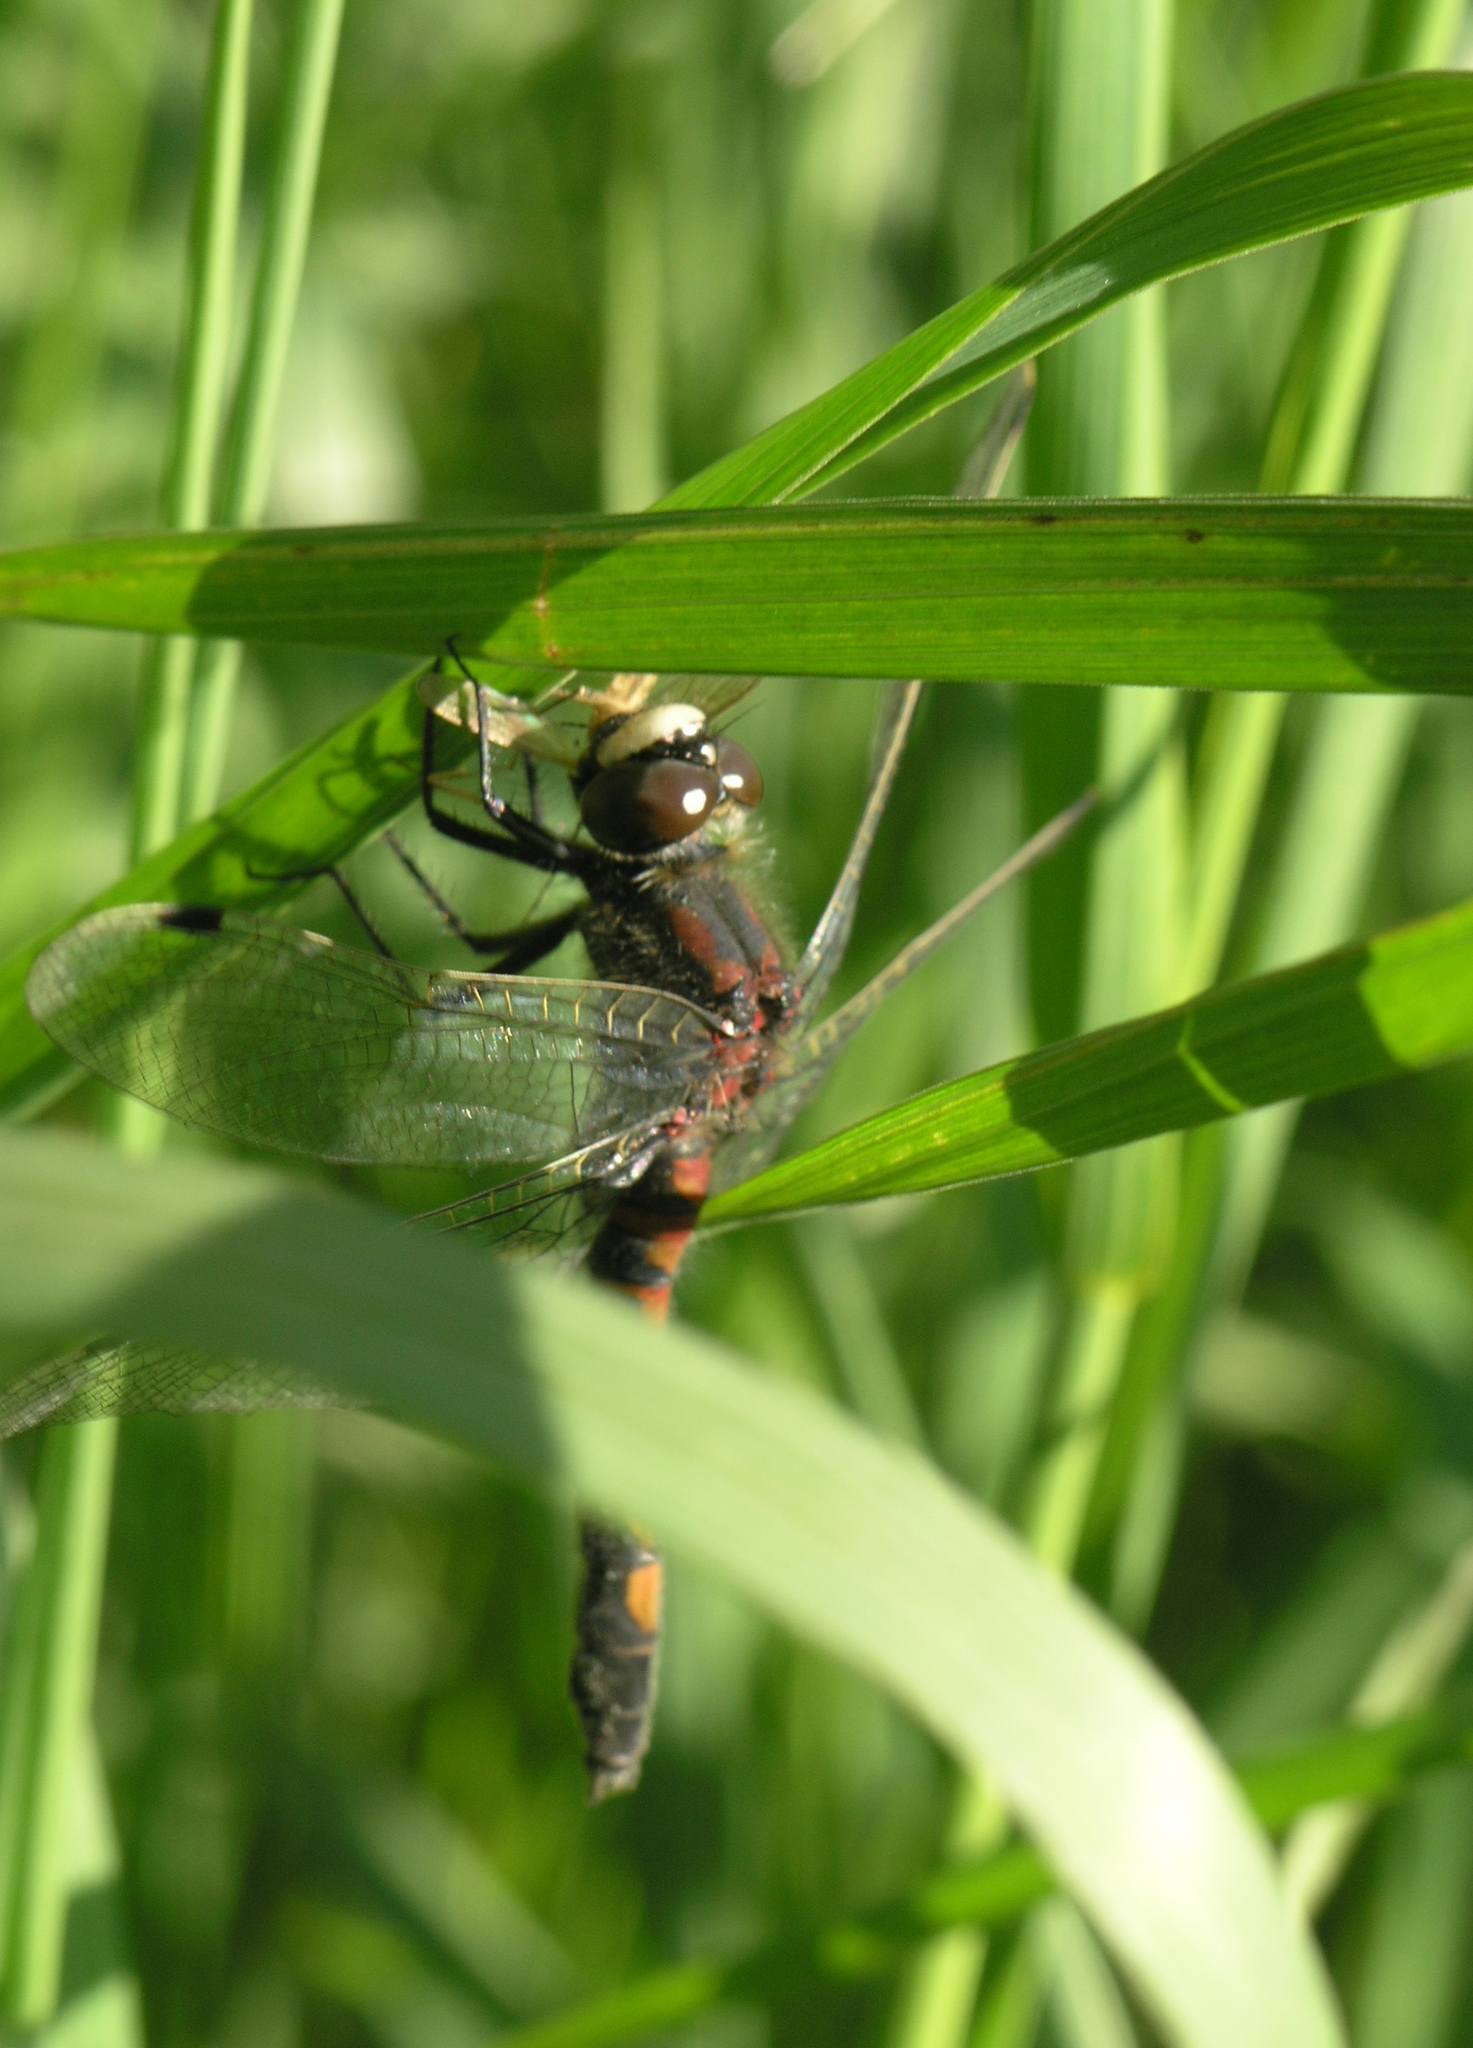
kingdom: Animalia
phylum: Arthropoda
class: Insecta
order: Odonata
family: Libellulidae
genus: Leucorrhinia
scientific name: Leucorrhinia rubicunda
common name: Ruby whiteface
